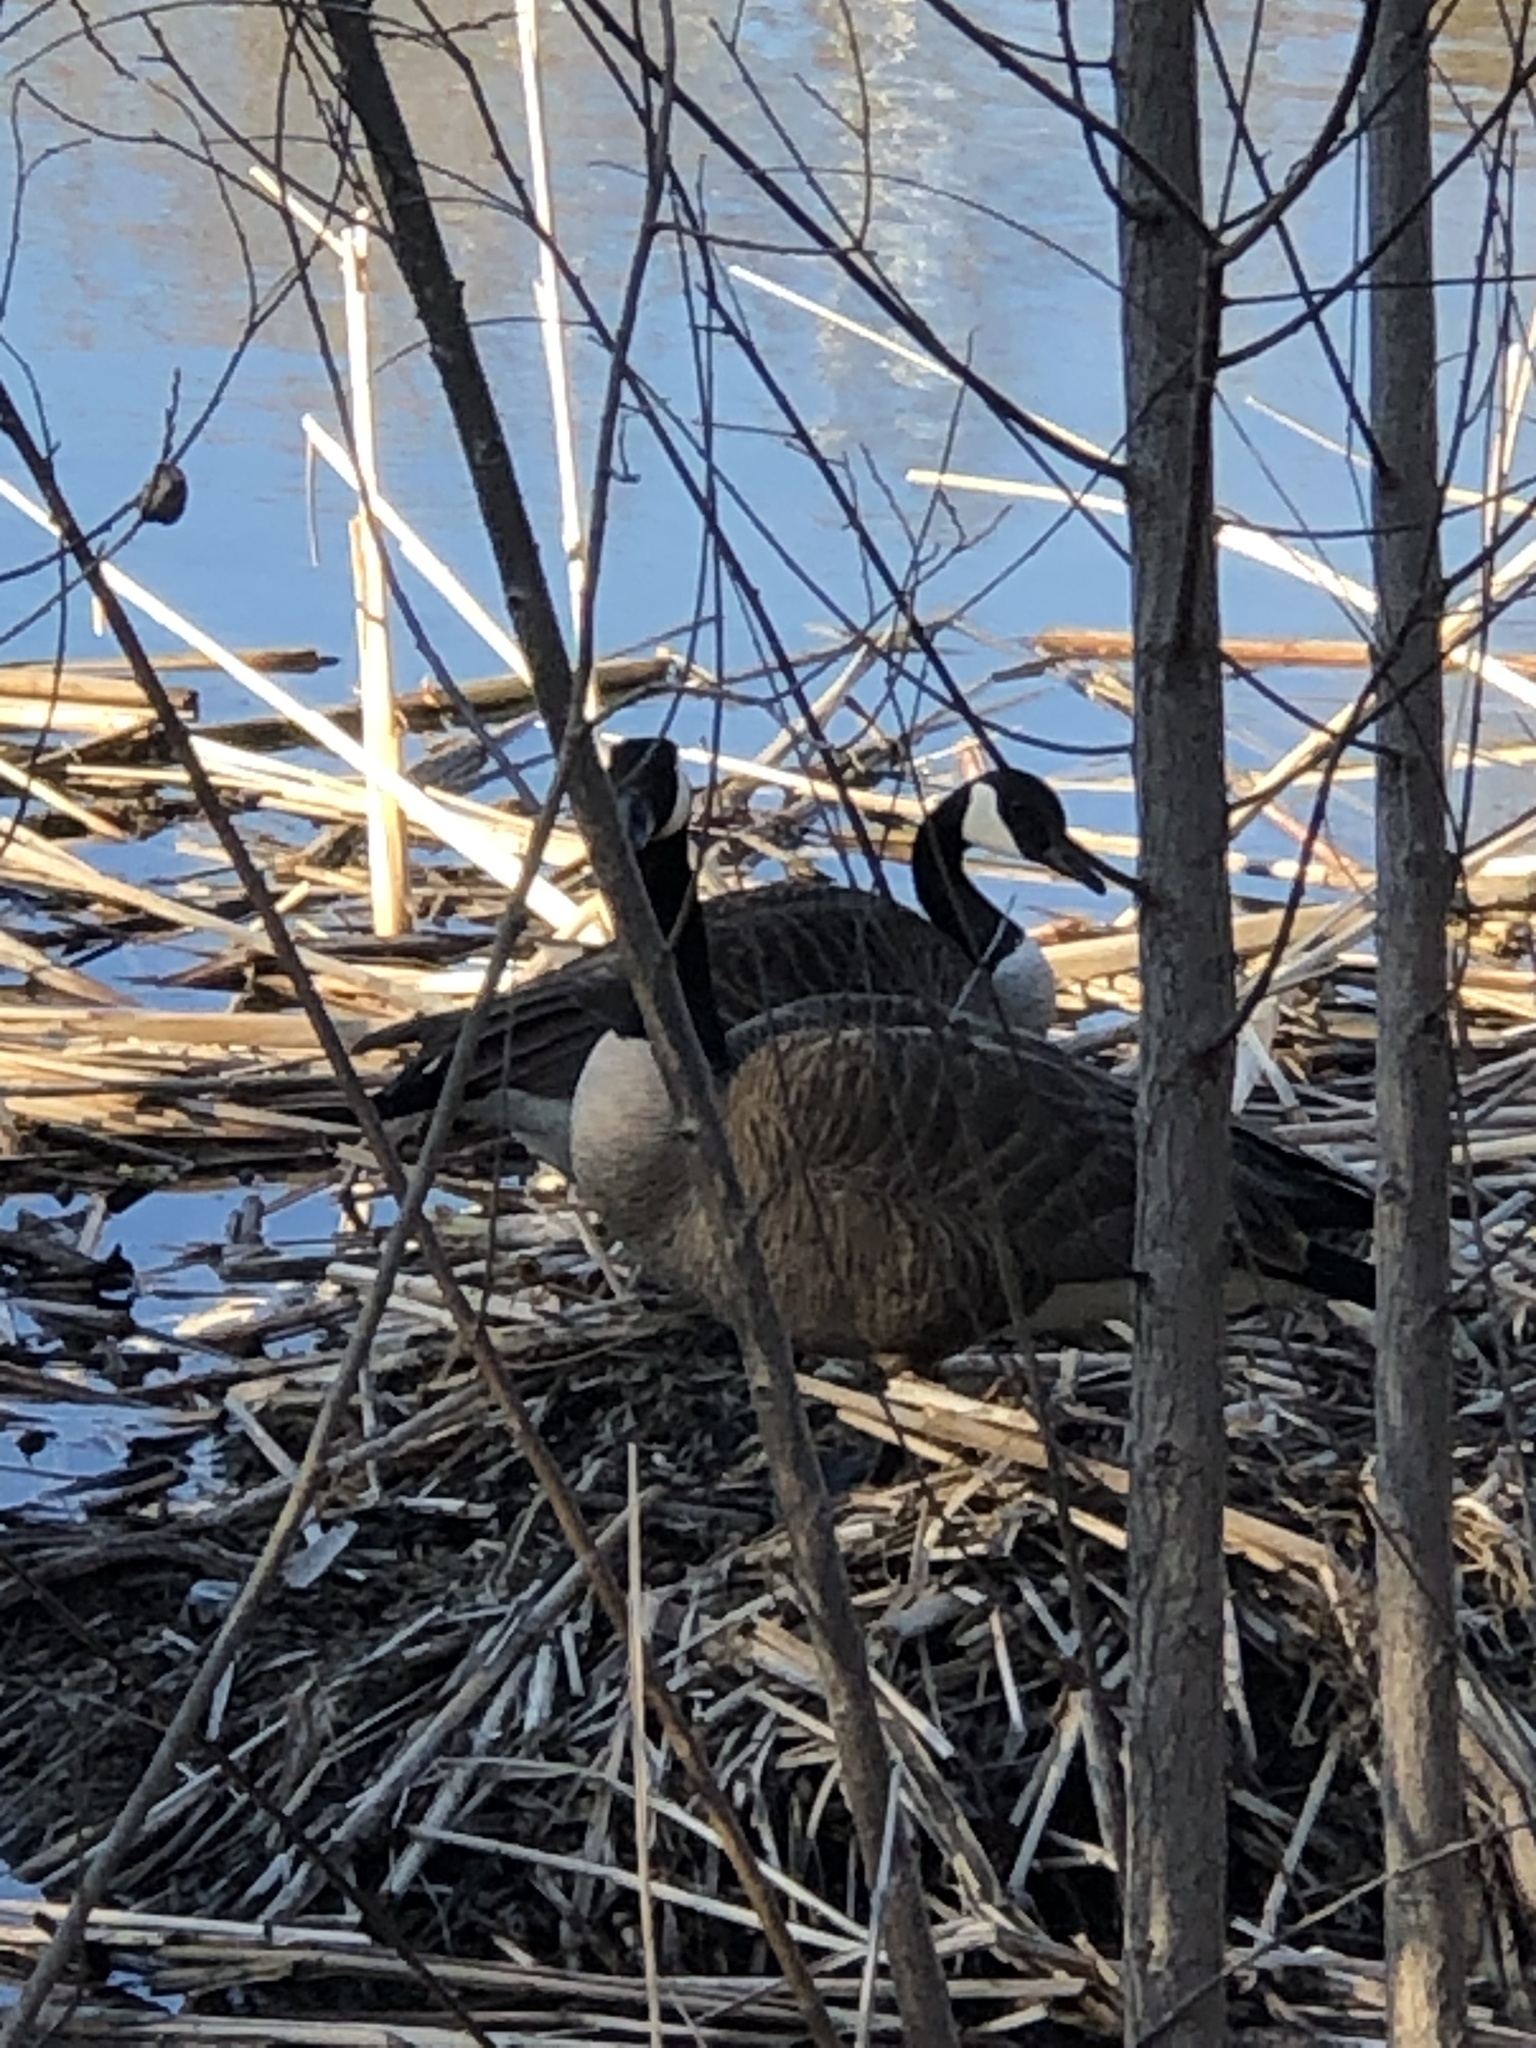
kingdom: Animalia
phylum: Chordata
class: Aves
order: Anseriformes
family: Anatidae
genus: Branta
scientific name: Branta canadensis
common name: Canada goose
